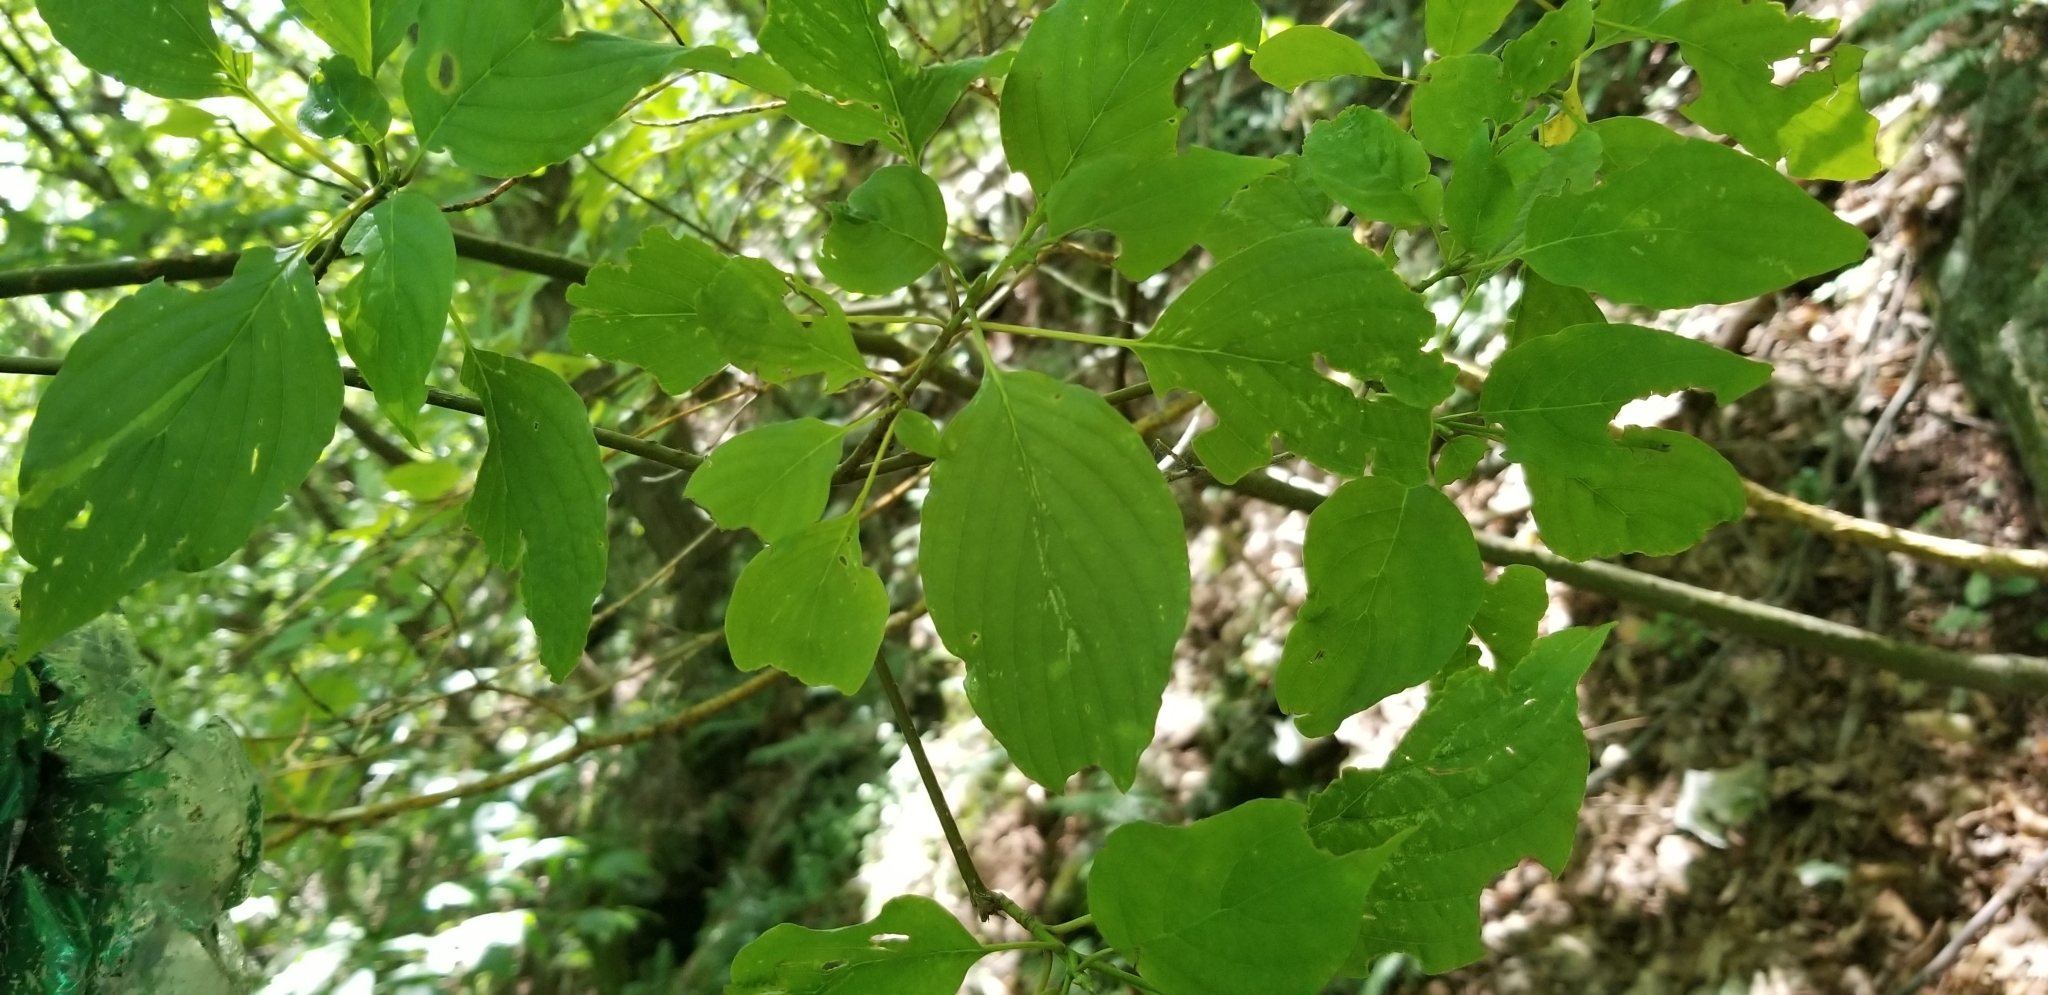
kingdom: Plantae
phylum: Tracheophyta
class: Magnoliopsida
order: Cornales
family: Cornaceae
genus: Cornus
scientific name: Cornus alternifolia
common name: Pagoda dogwood
